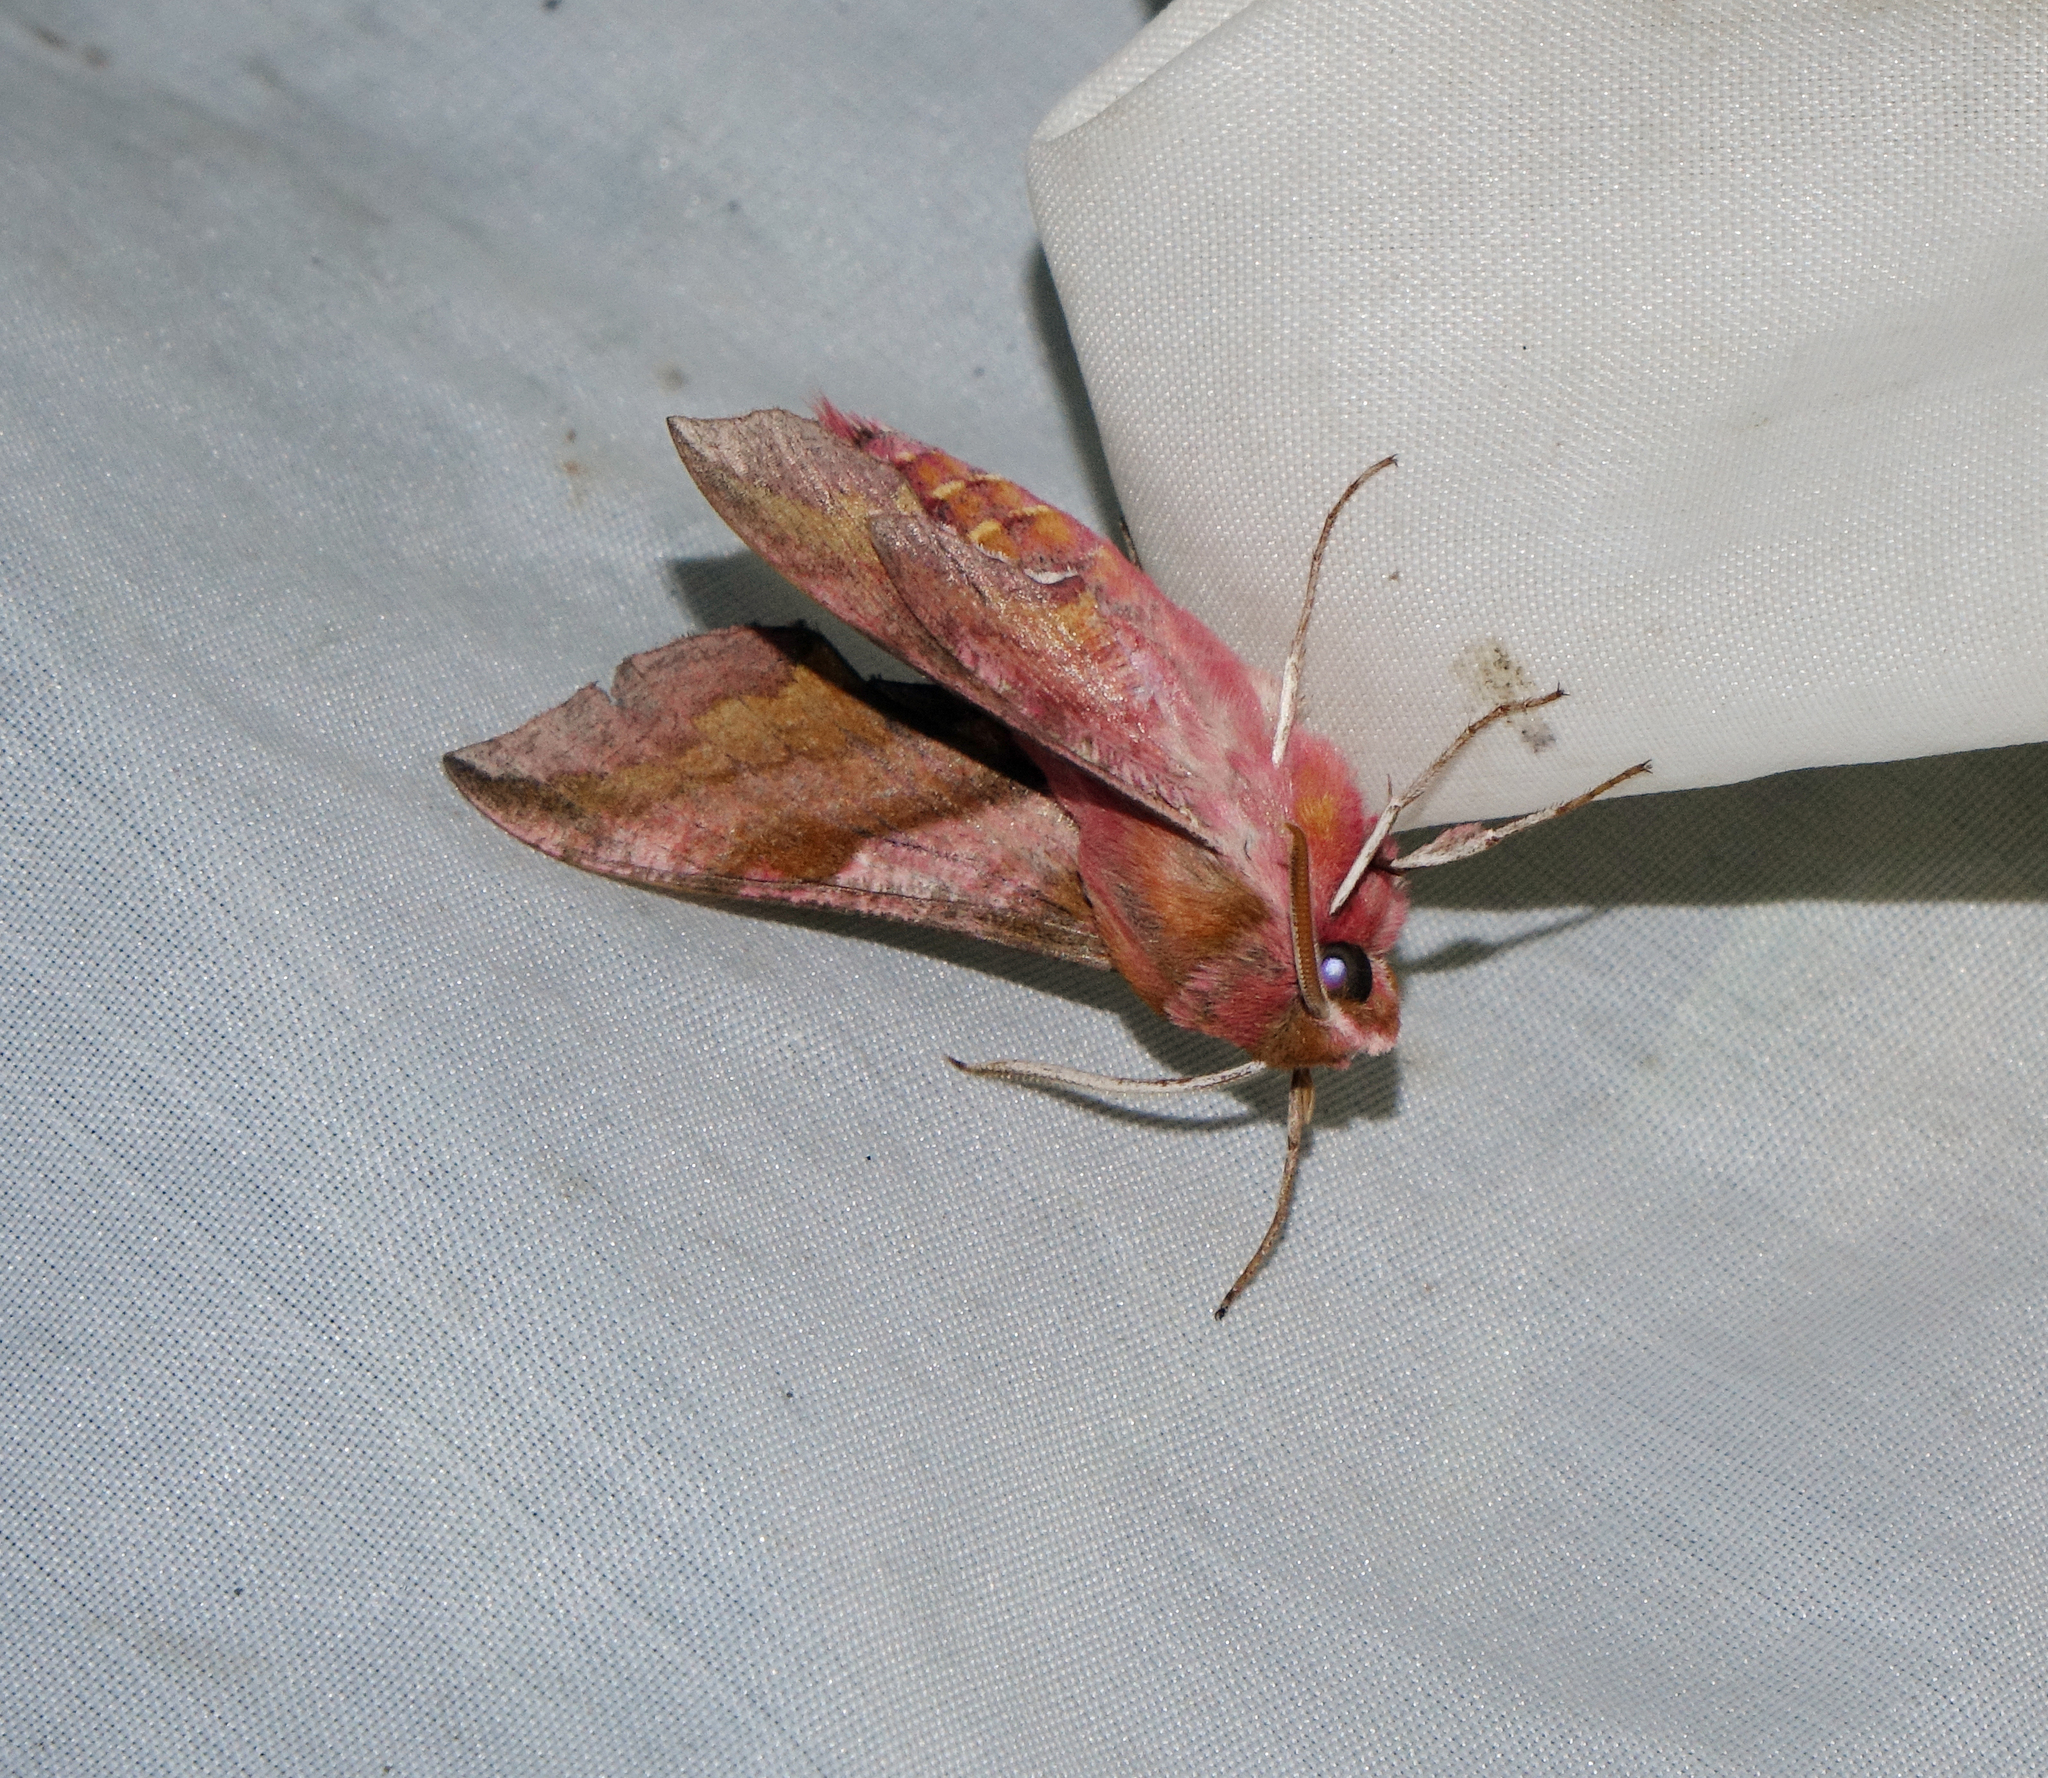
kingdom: Animalia
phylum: Arthropoda
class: Insecta
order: Lepidoptera
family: Sphingidae
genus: Deilephila
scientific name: Deilephila porcellus
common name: Small elephant hawk-moth
